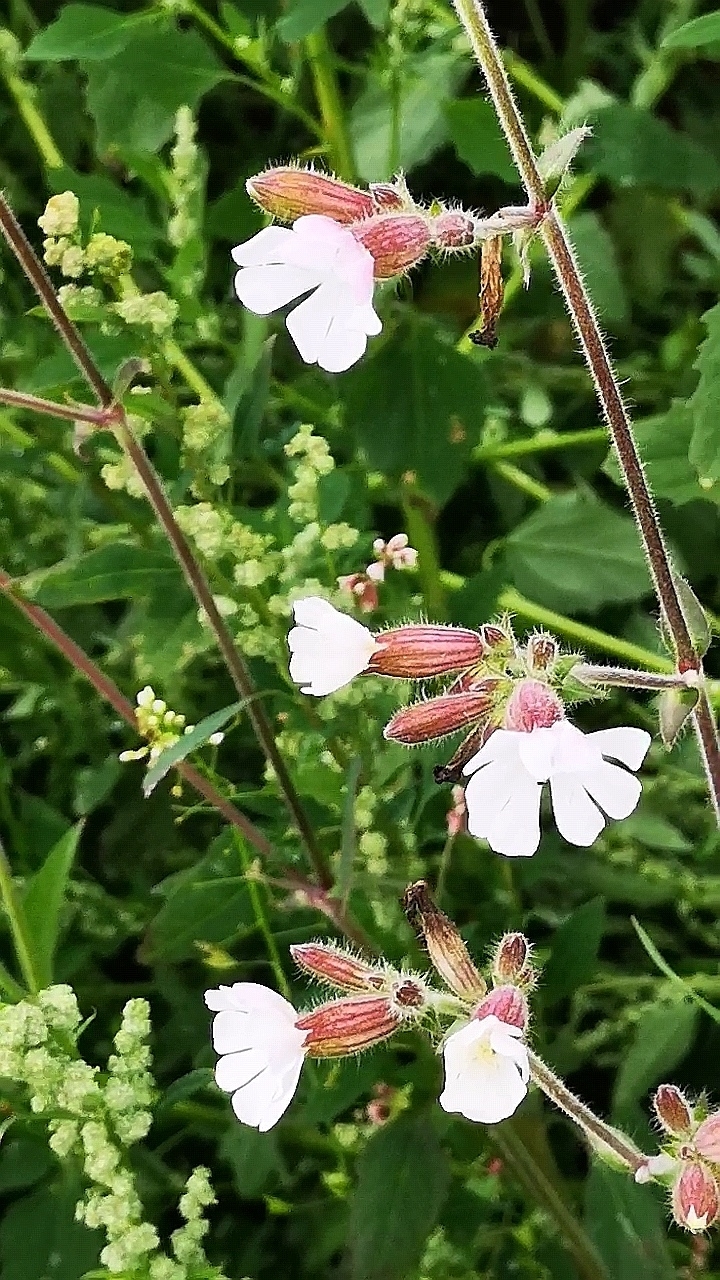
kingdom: Plantae
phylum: Tracheophyta
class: Magnoliopsida
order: Caryophyllales
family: Caryophyllaceae
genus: Silene
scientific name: Silene latifolia
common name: White campion
